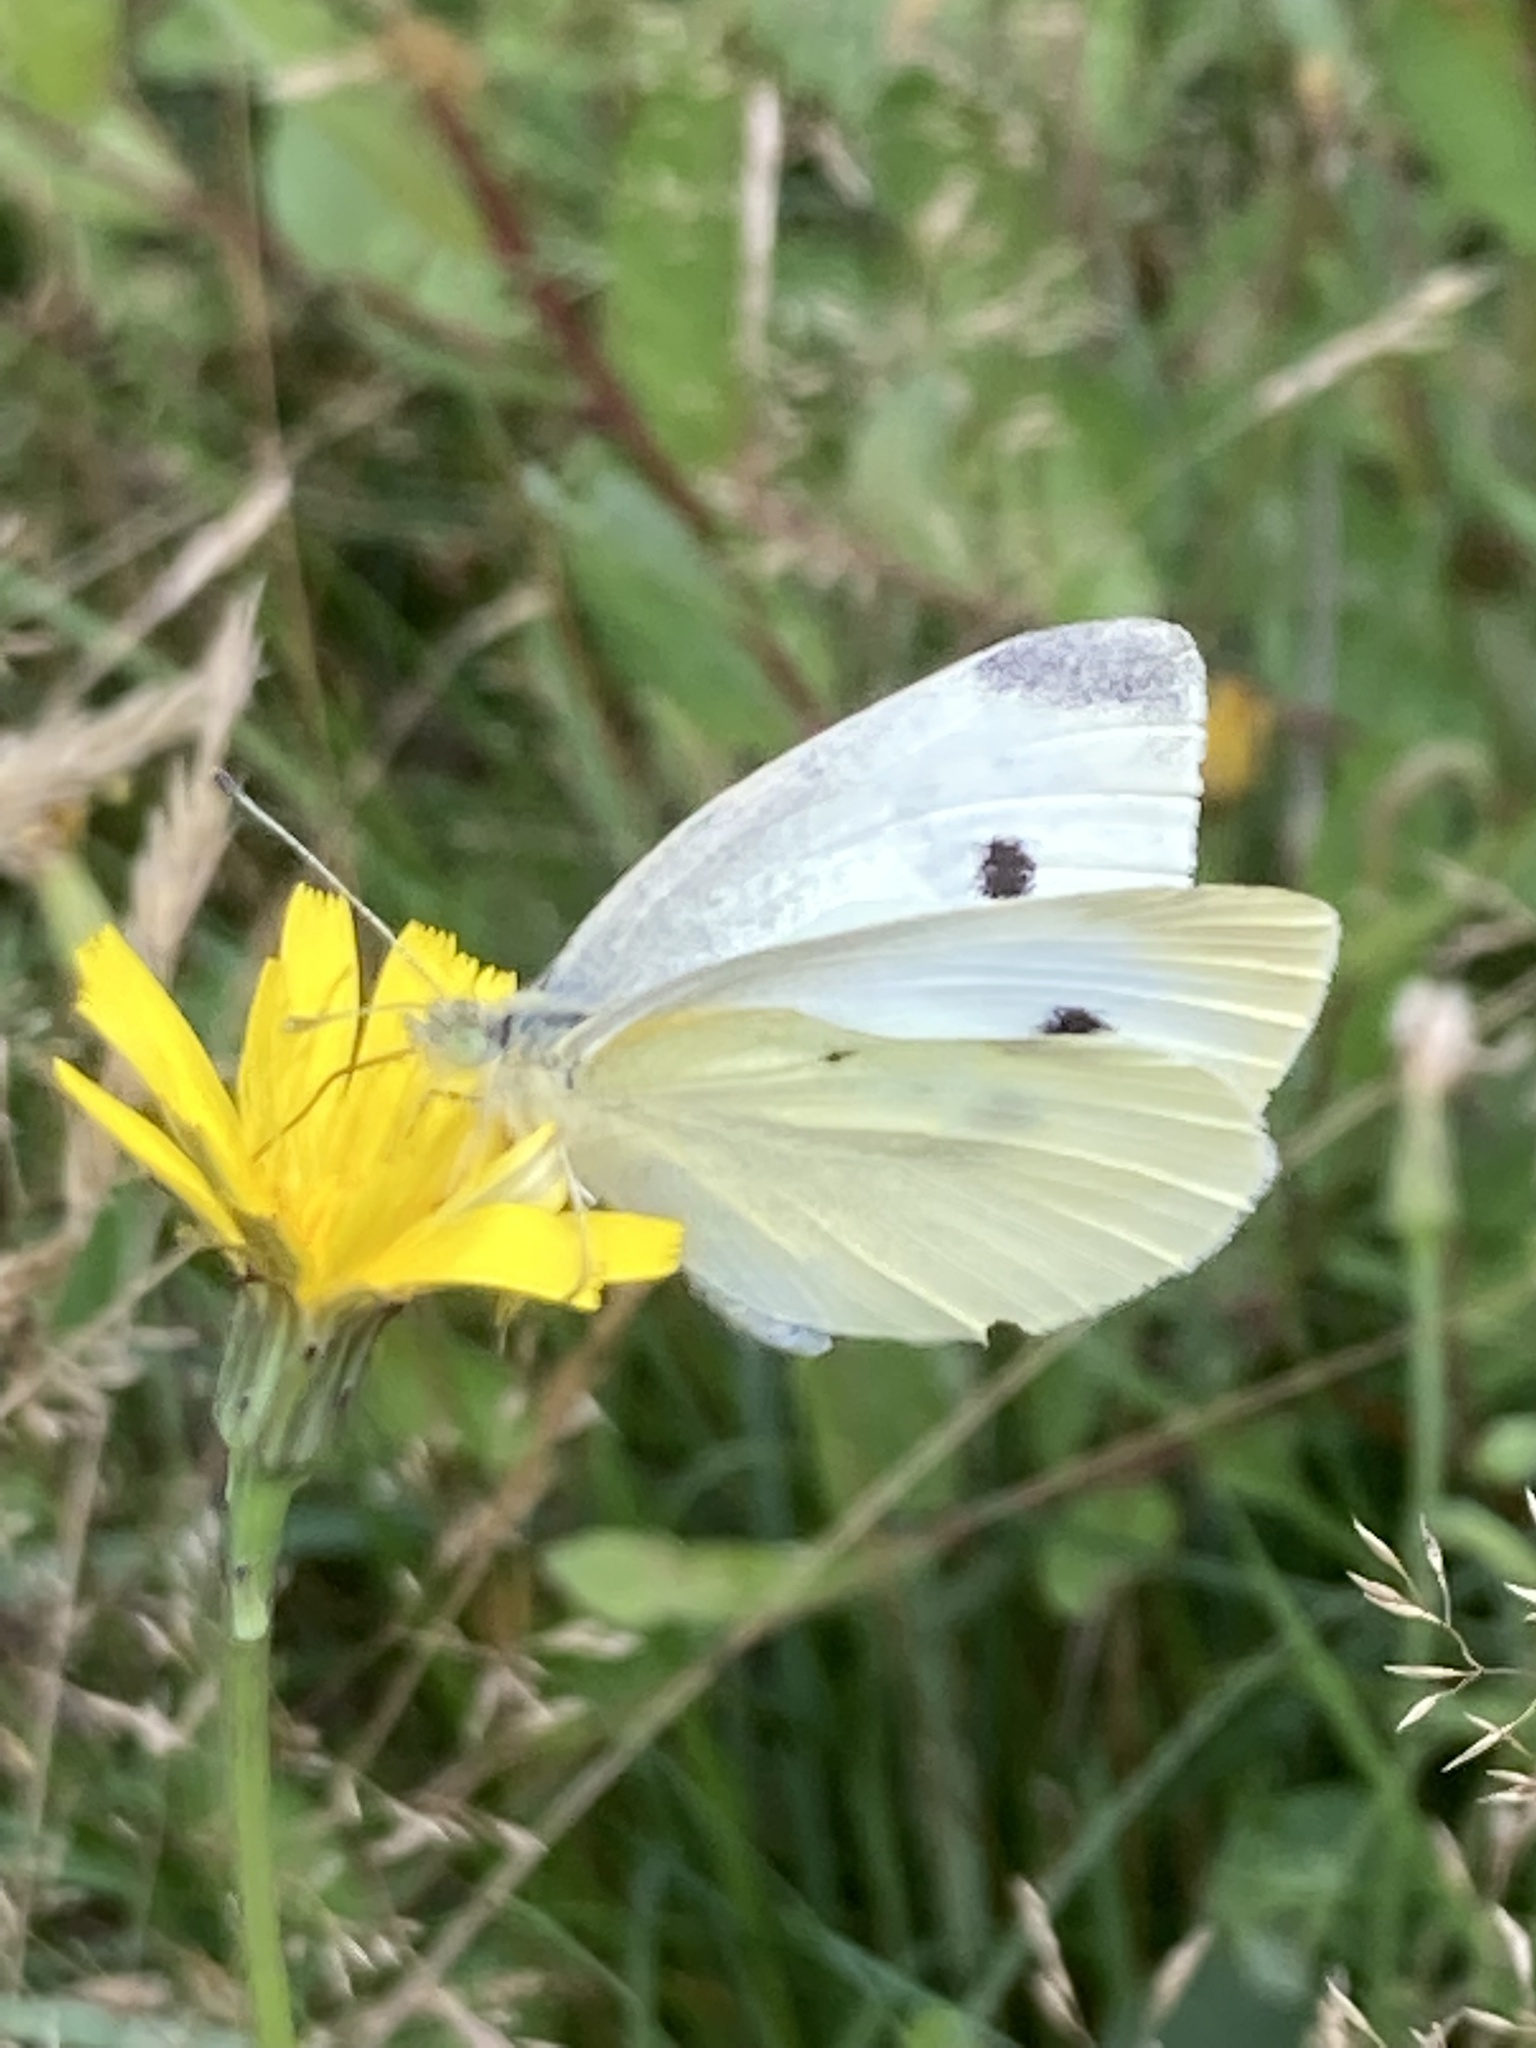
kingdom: Animalia
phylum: Arthropoda
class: Insecta
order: Lepidoptera
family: Pieridae
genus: Pieris
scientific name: Pieris rapae
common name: Small white
